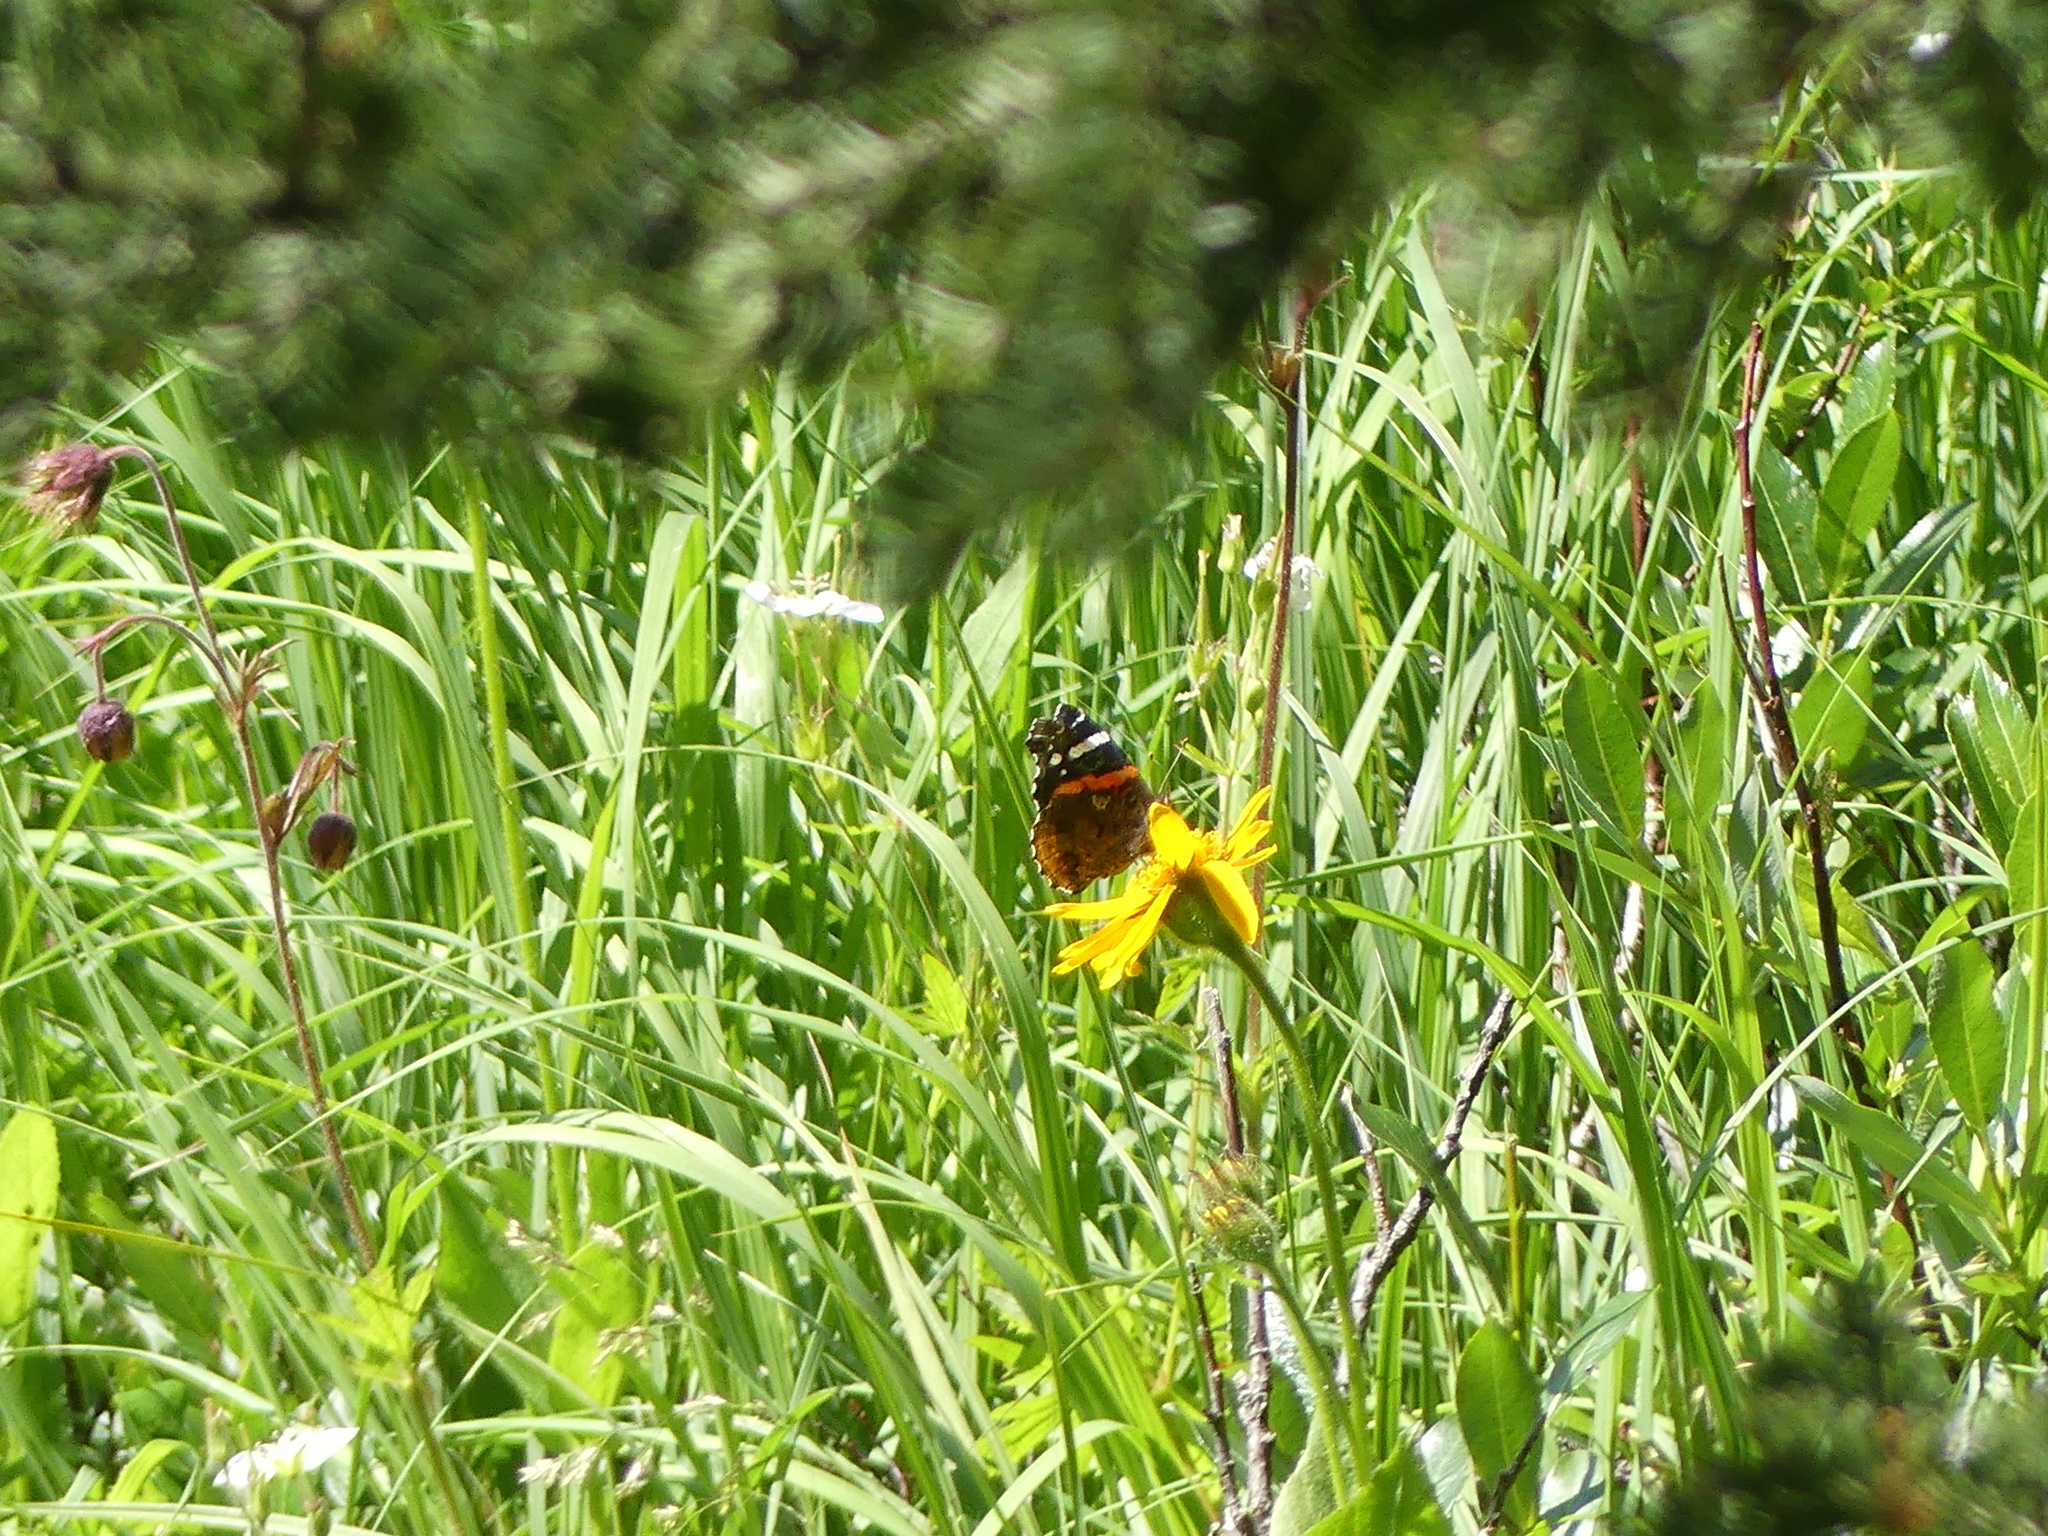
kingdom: Animalia
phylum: Arthropoda
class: Insecta
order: Lepidoptera
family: Nymphalidae
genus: Vanessa
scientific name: Vanessa atalanta
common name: Red admiral
